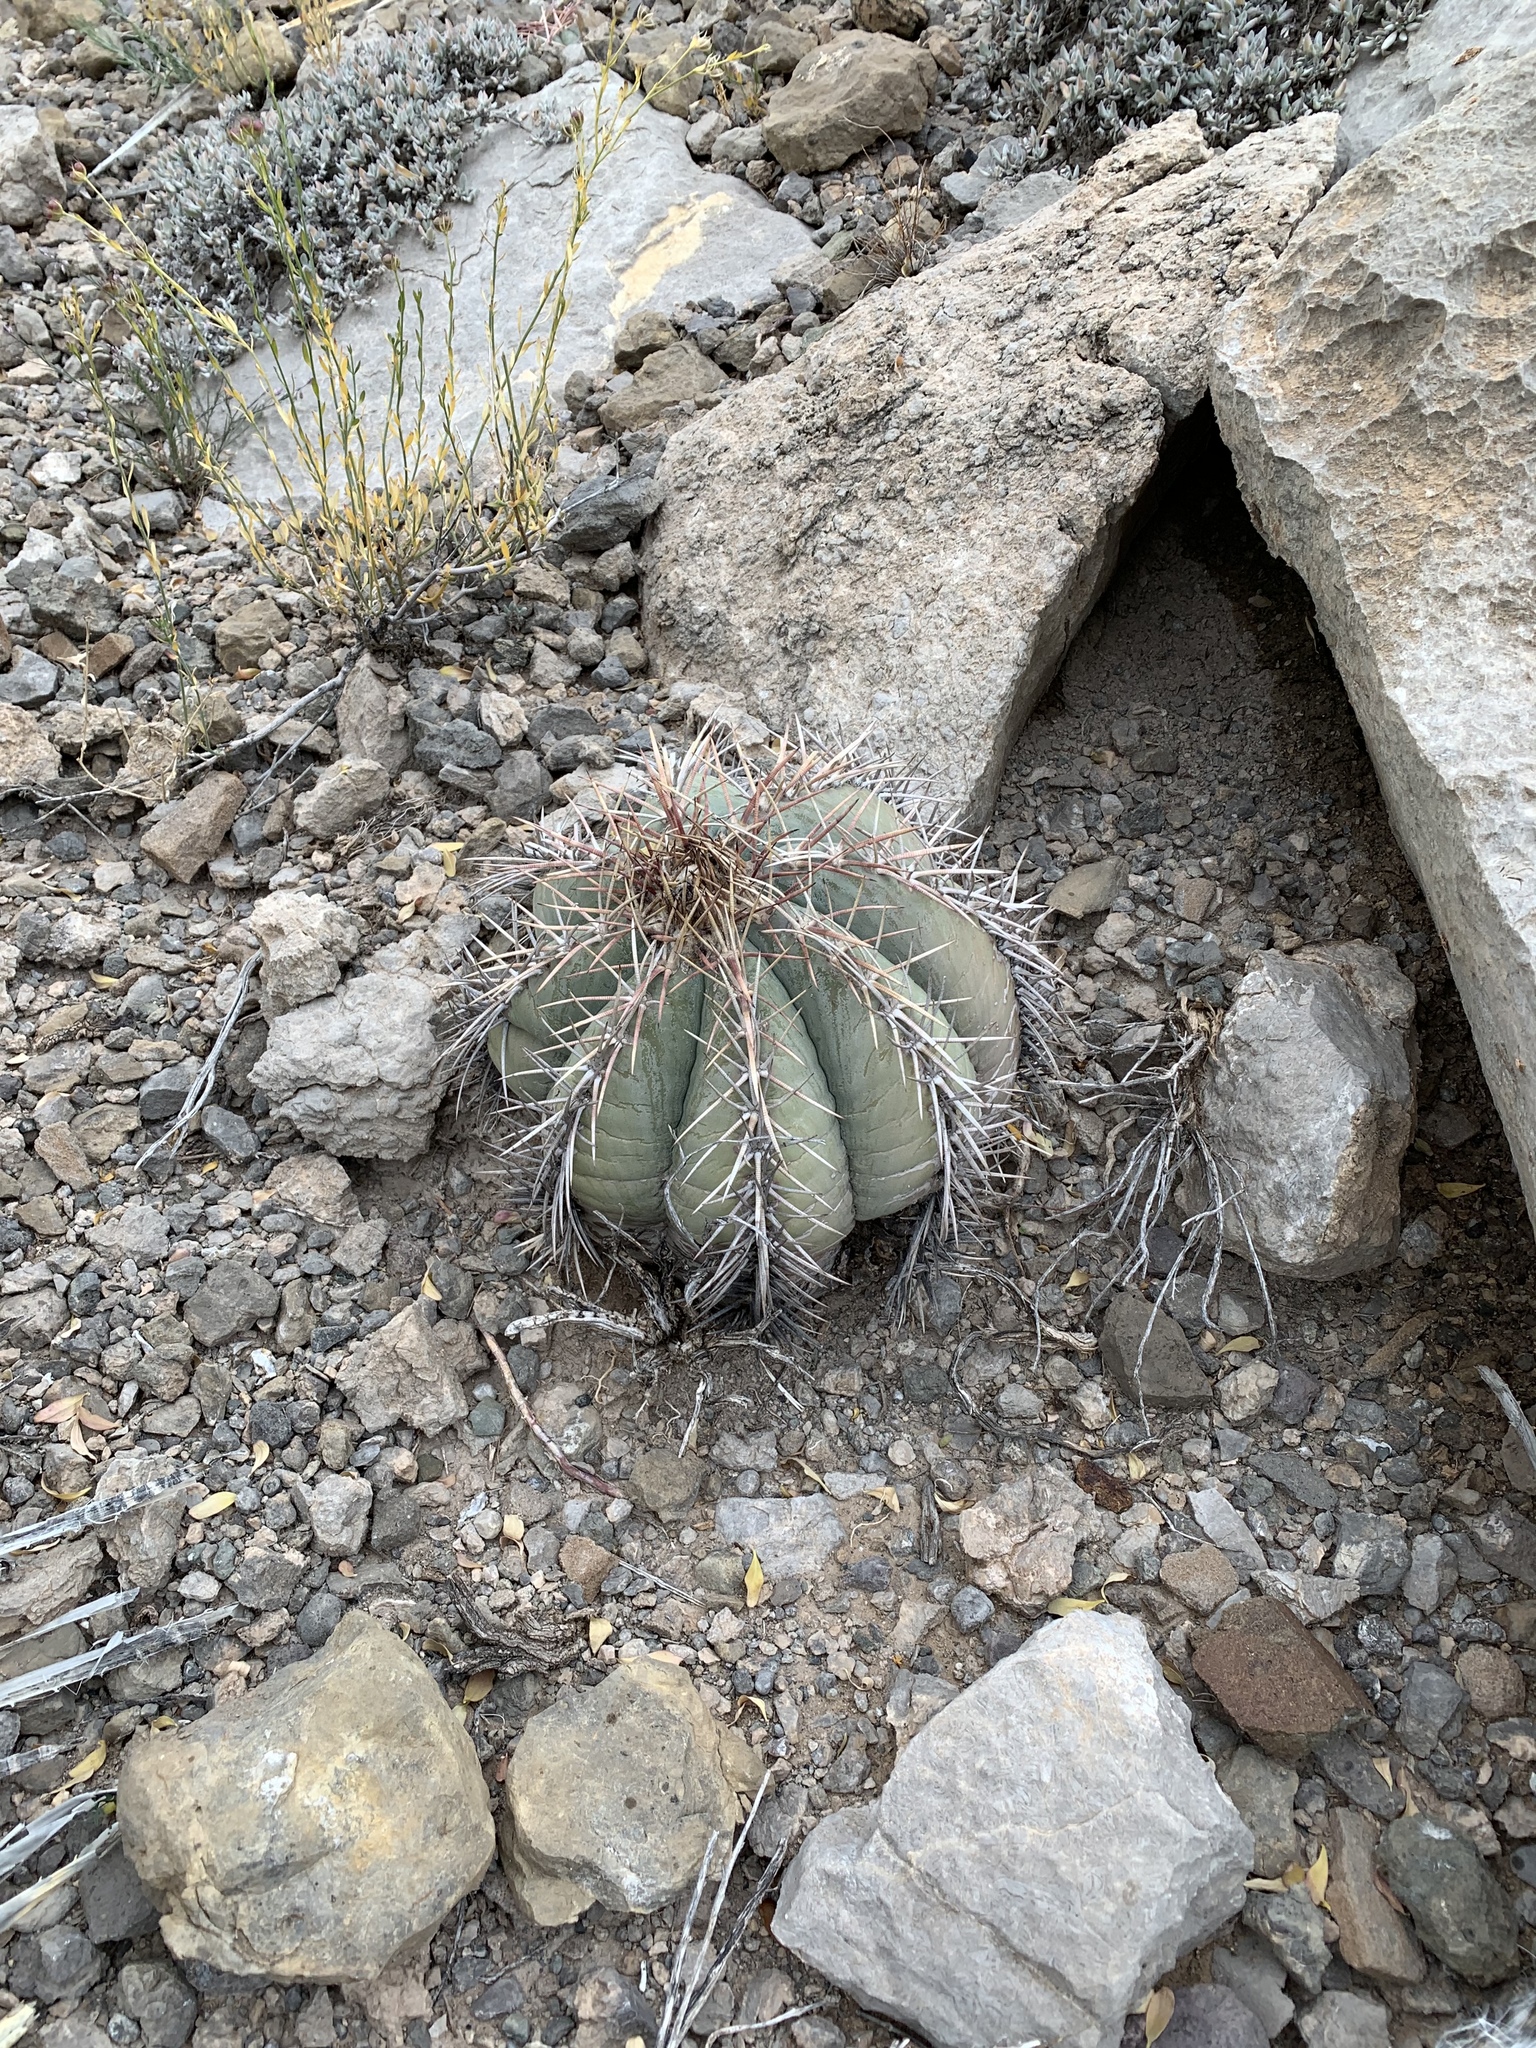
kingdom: Plantae
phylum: Tracheophyta
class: Magnoliopsida
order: Caryophyllales
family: Cactaceae
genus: Echinocactus
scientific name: Echinocactus horizonthalonius
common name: Devilshead
